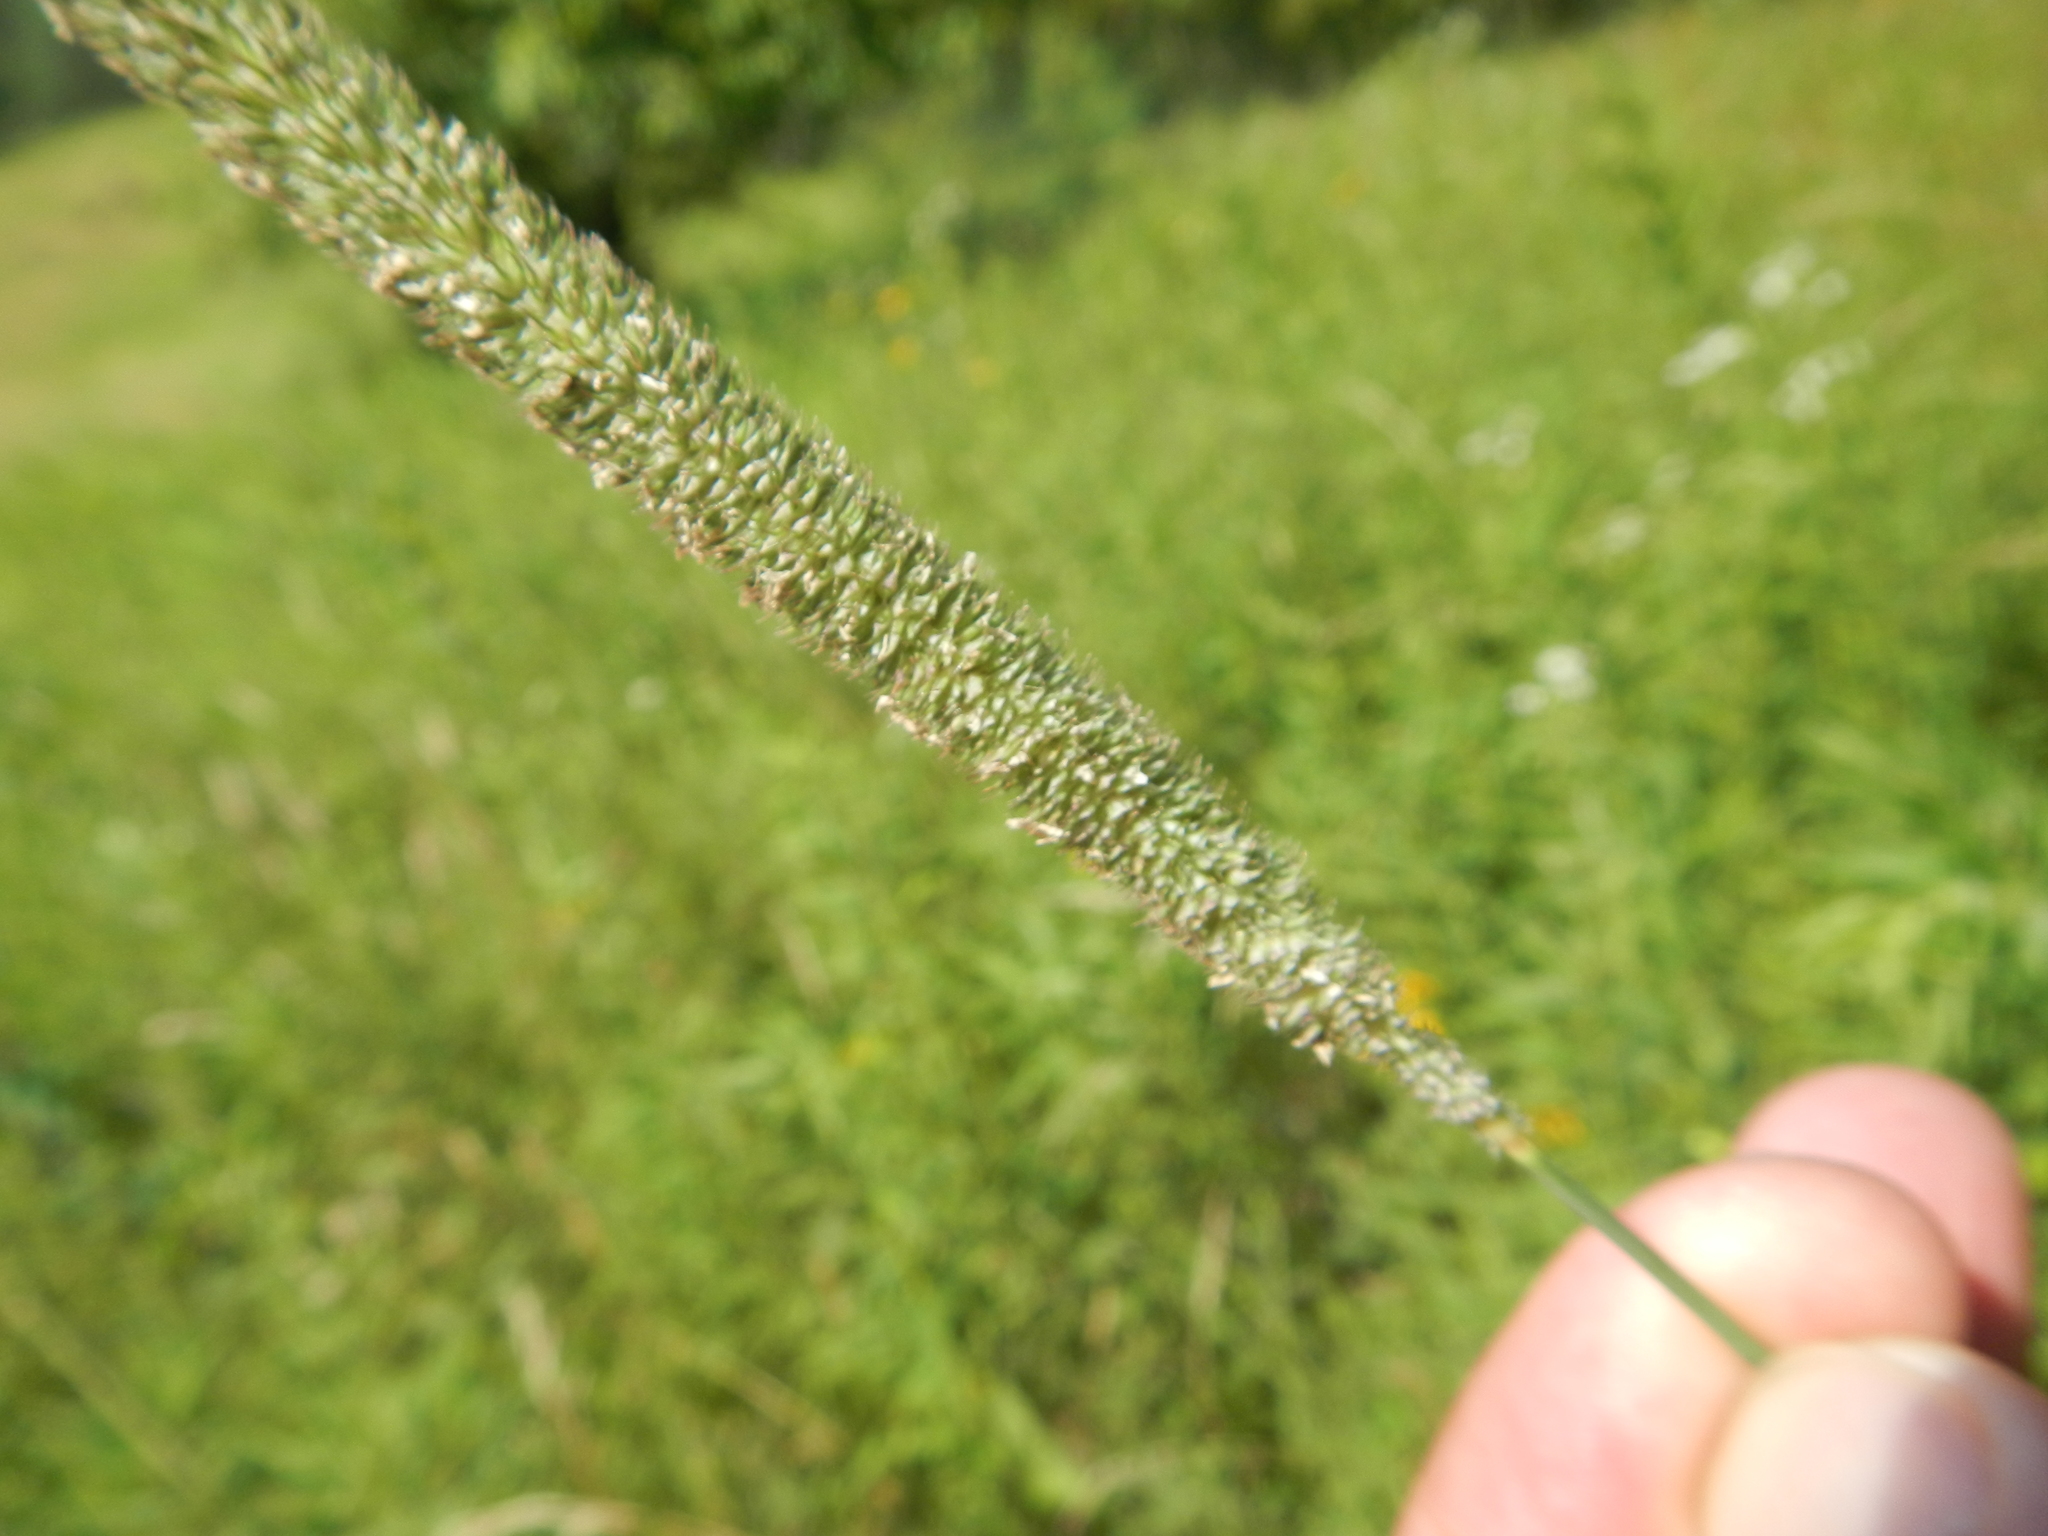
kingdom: Plantae
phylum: Tracheophyta
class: Liliopsida
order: Poales
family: Poaceae
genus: Phleum
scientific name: Phleum pratense
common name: Timothy grass
